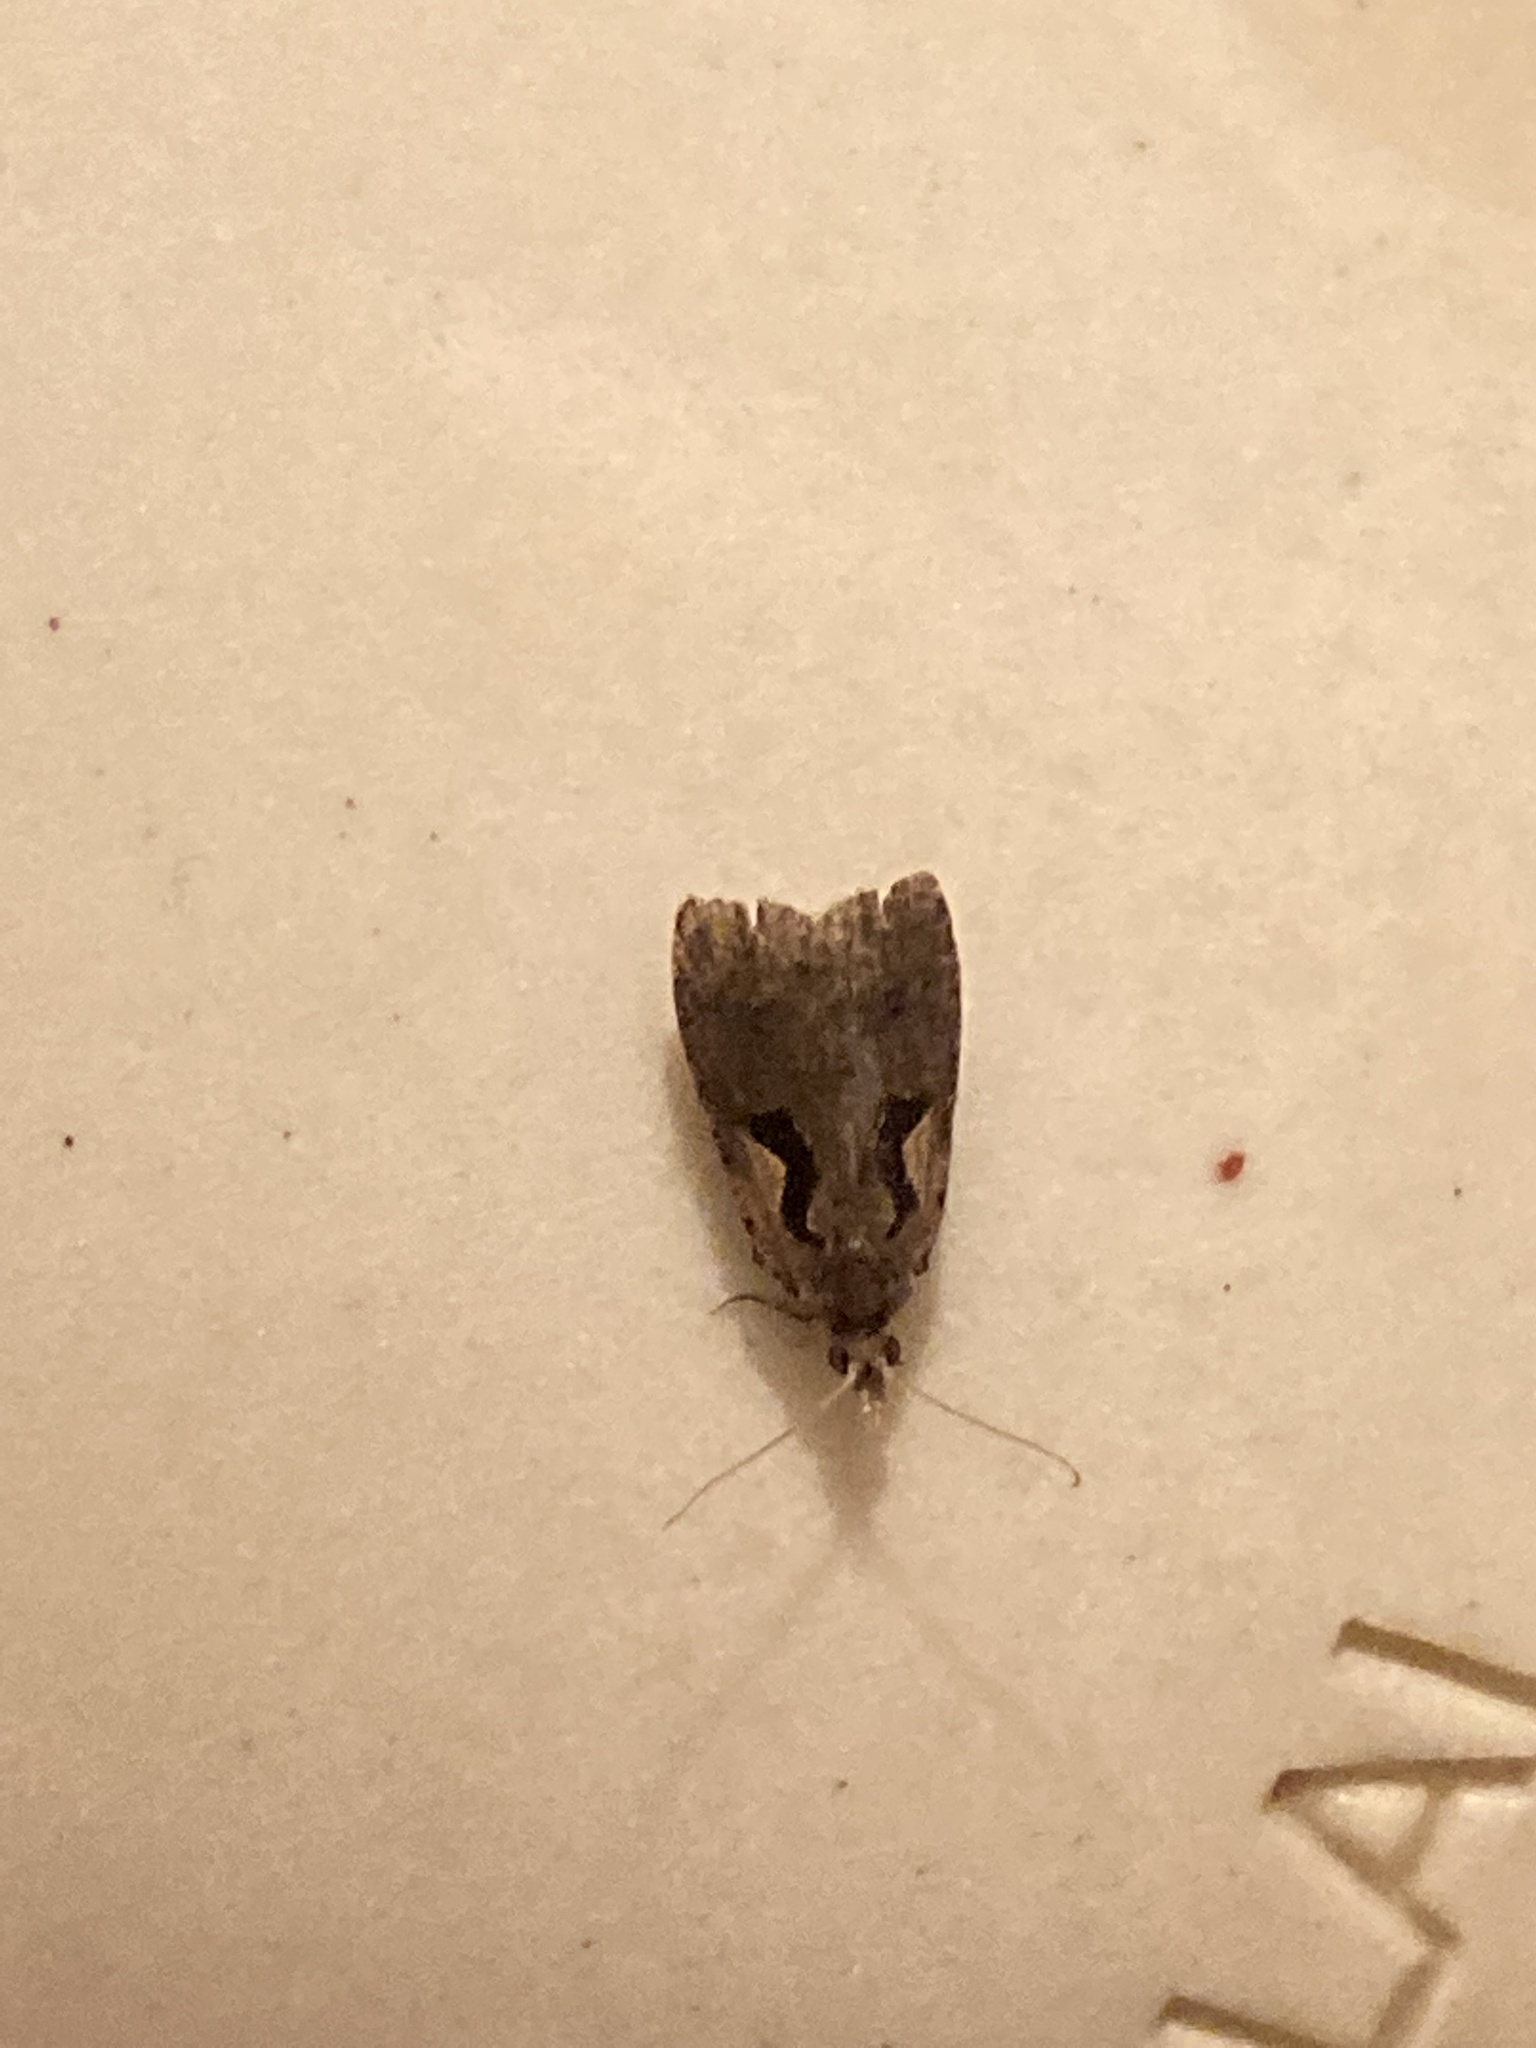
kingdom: Animalia
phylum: Arthropoda
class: Insecta
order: Lepidoptera
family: Tortricidae
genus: Cnephasia
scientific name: Cnephasia jactatana
